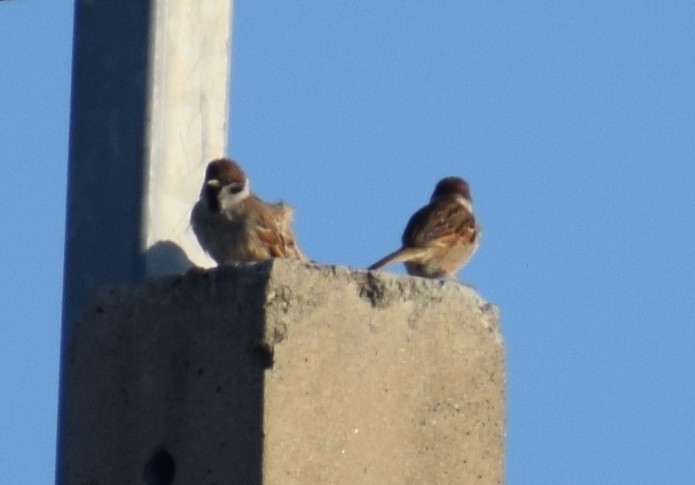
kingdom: Animalia
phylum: Chordata
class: Aves
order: Passeriformes
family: Passeridae
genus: Passer
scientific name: Passer montanus
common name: Eurasian tree sparrow
